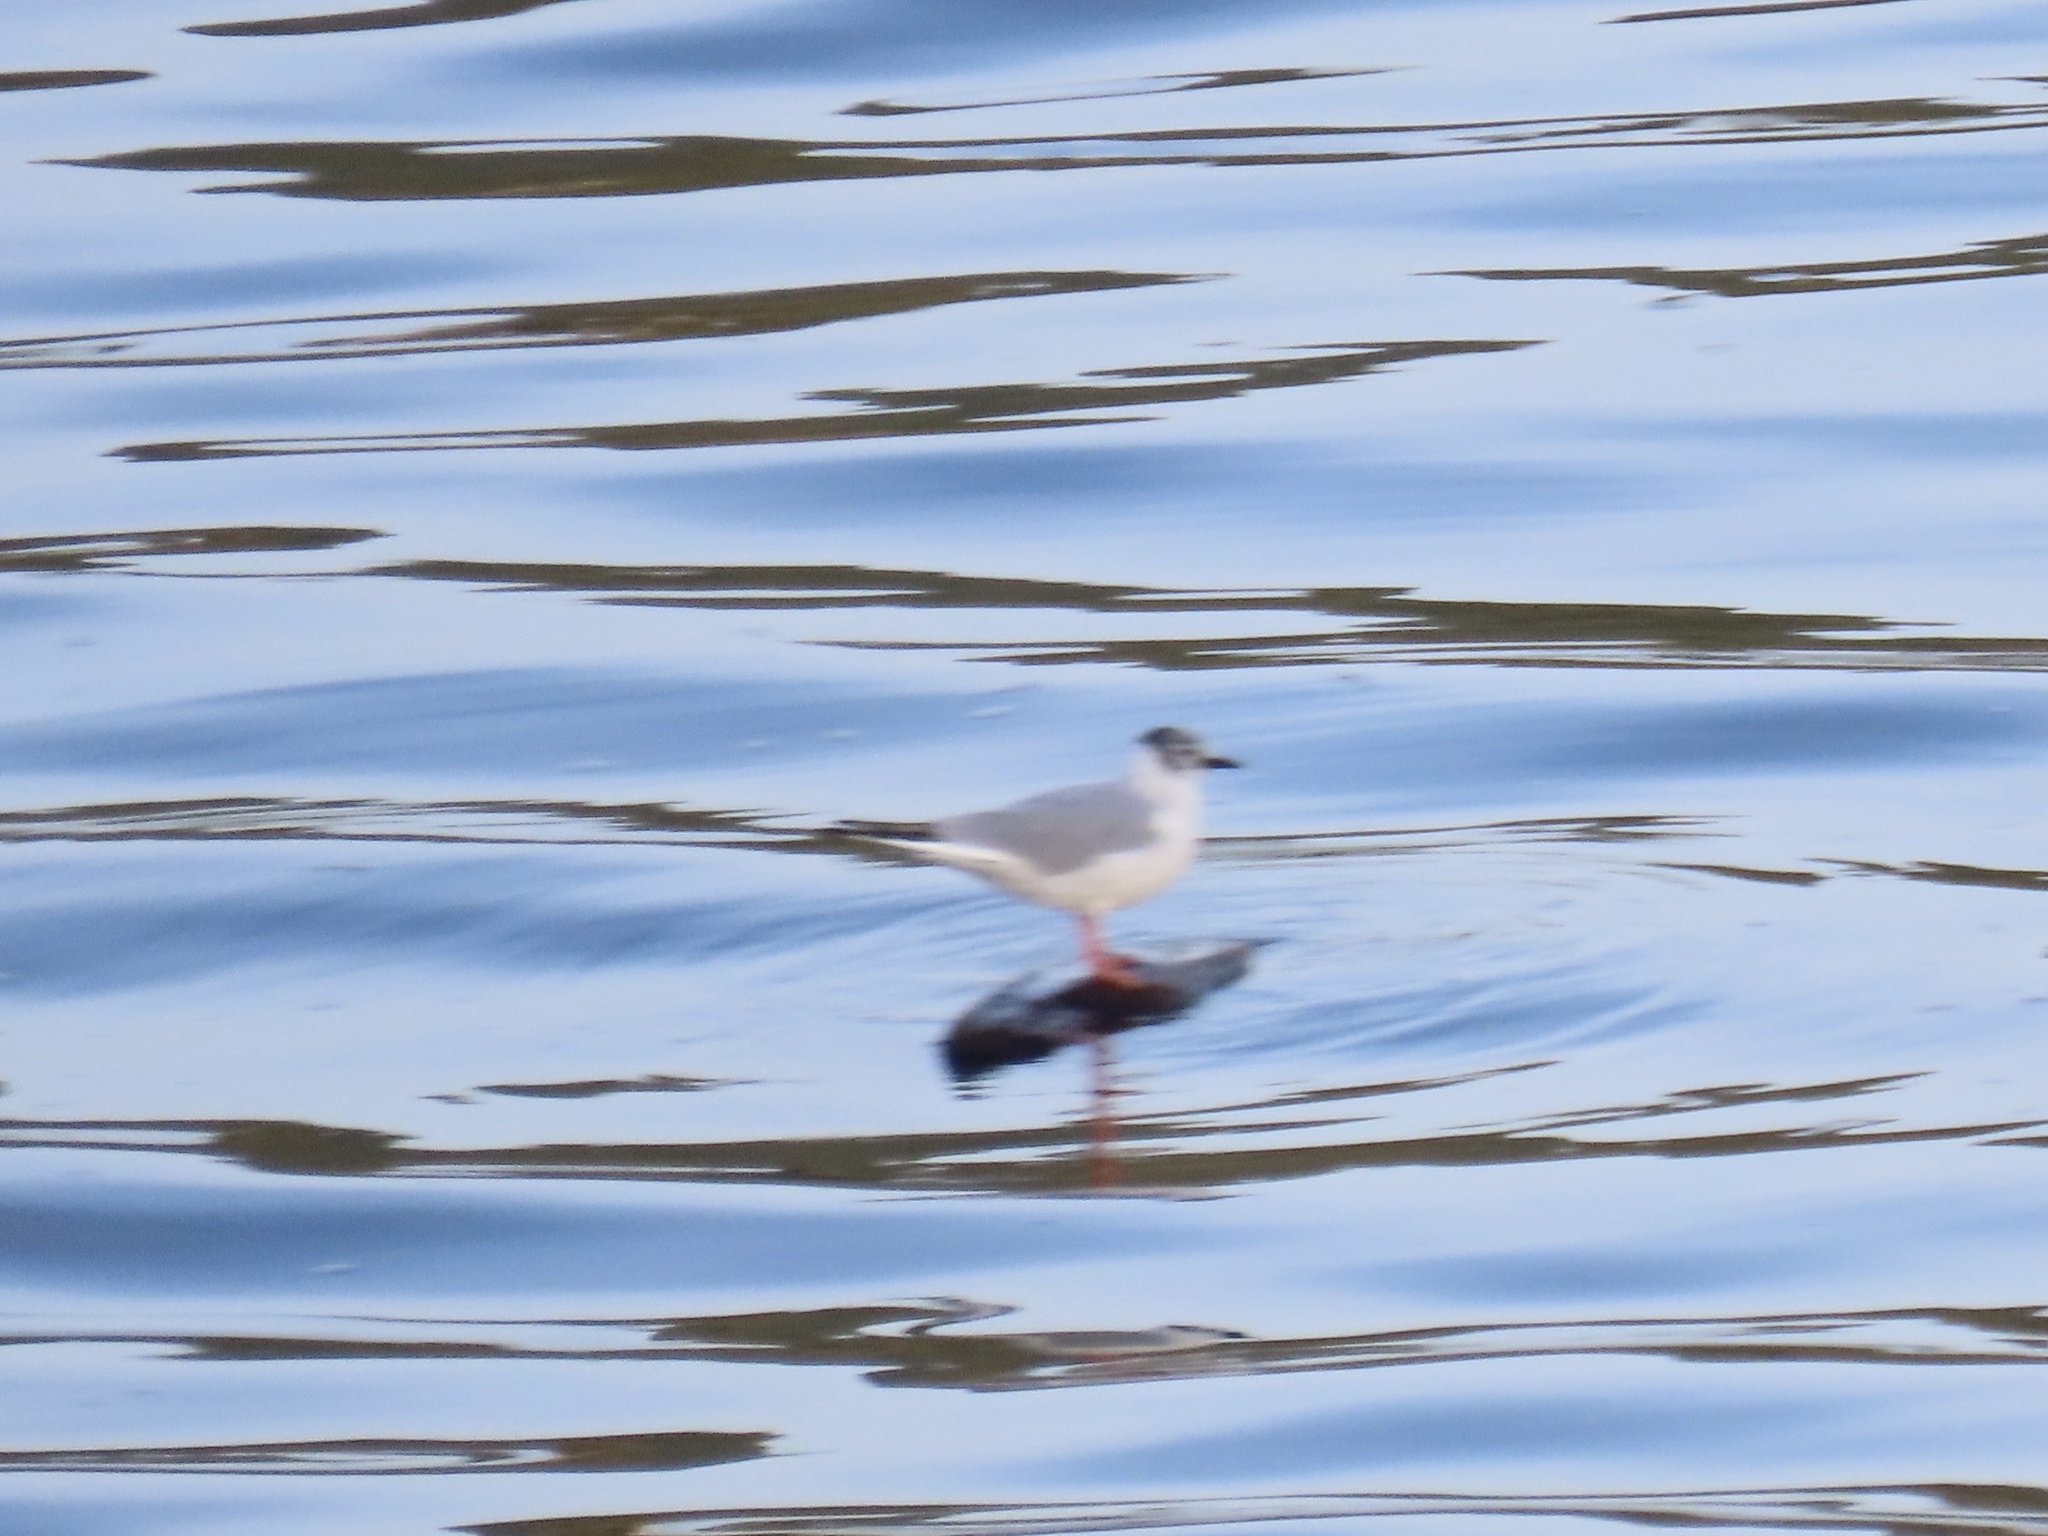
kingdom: Animalia
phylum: Chordata
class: Aves
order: Charadriiformes
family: Laridae
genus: Chroicocephalus
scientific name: Chroicocephalus philadelphia
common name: Bonaparte's gull
